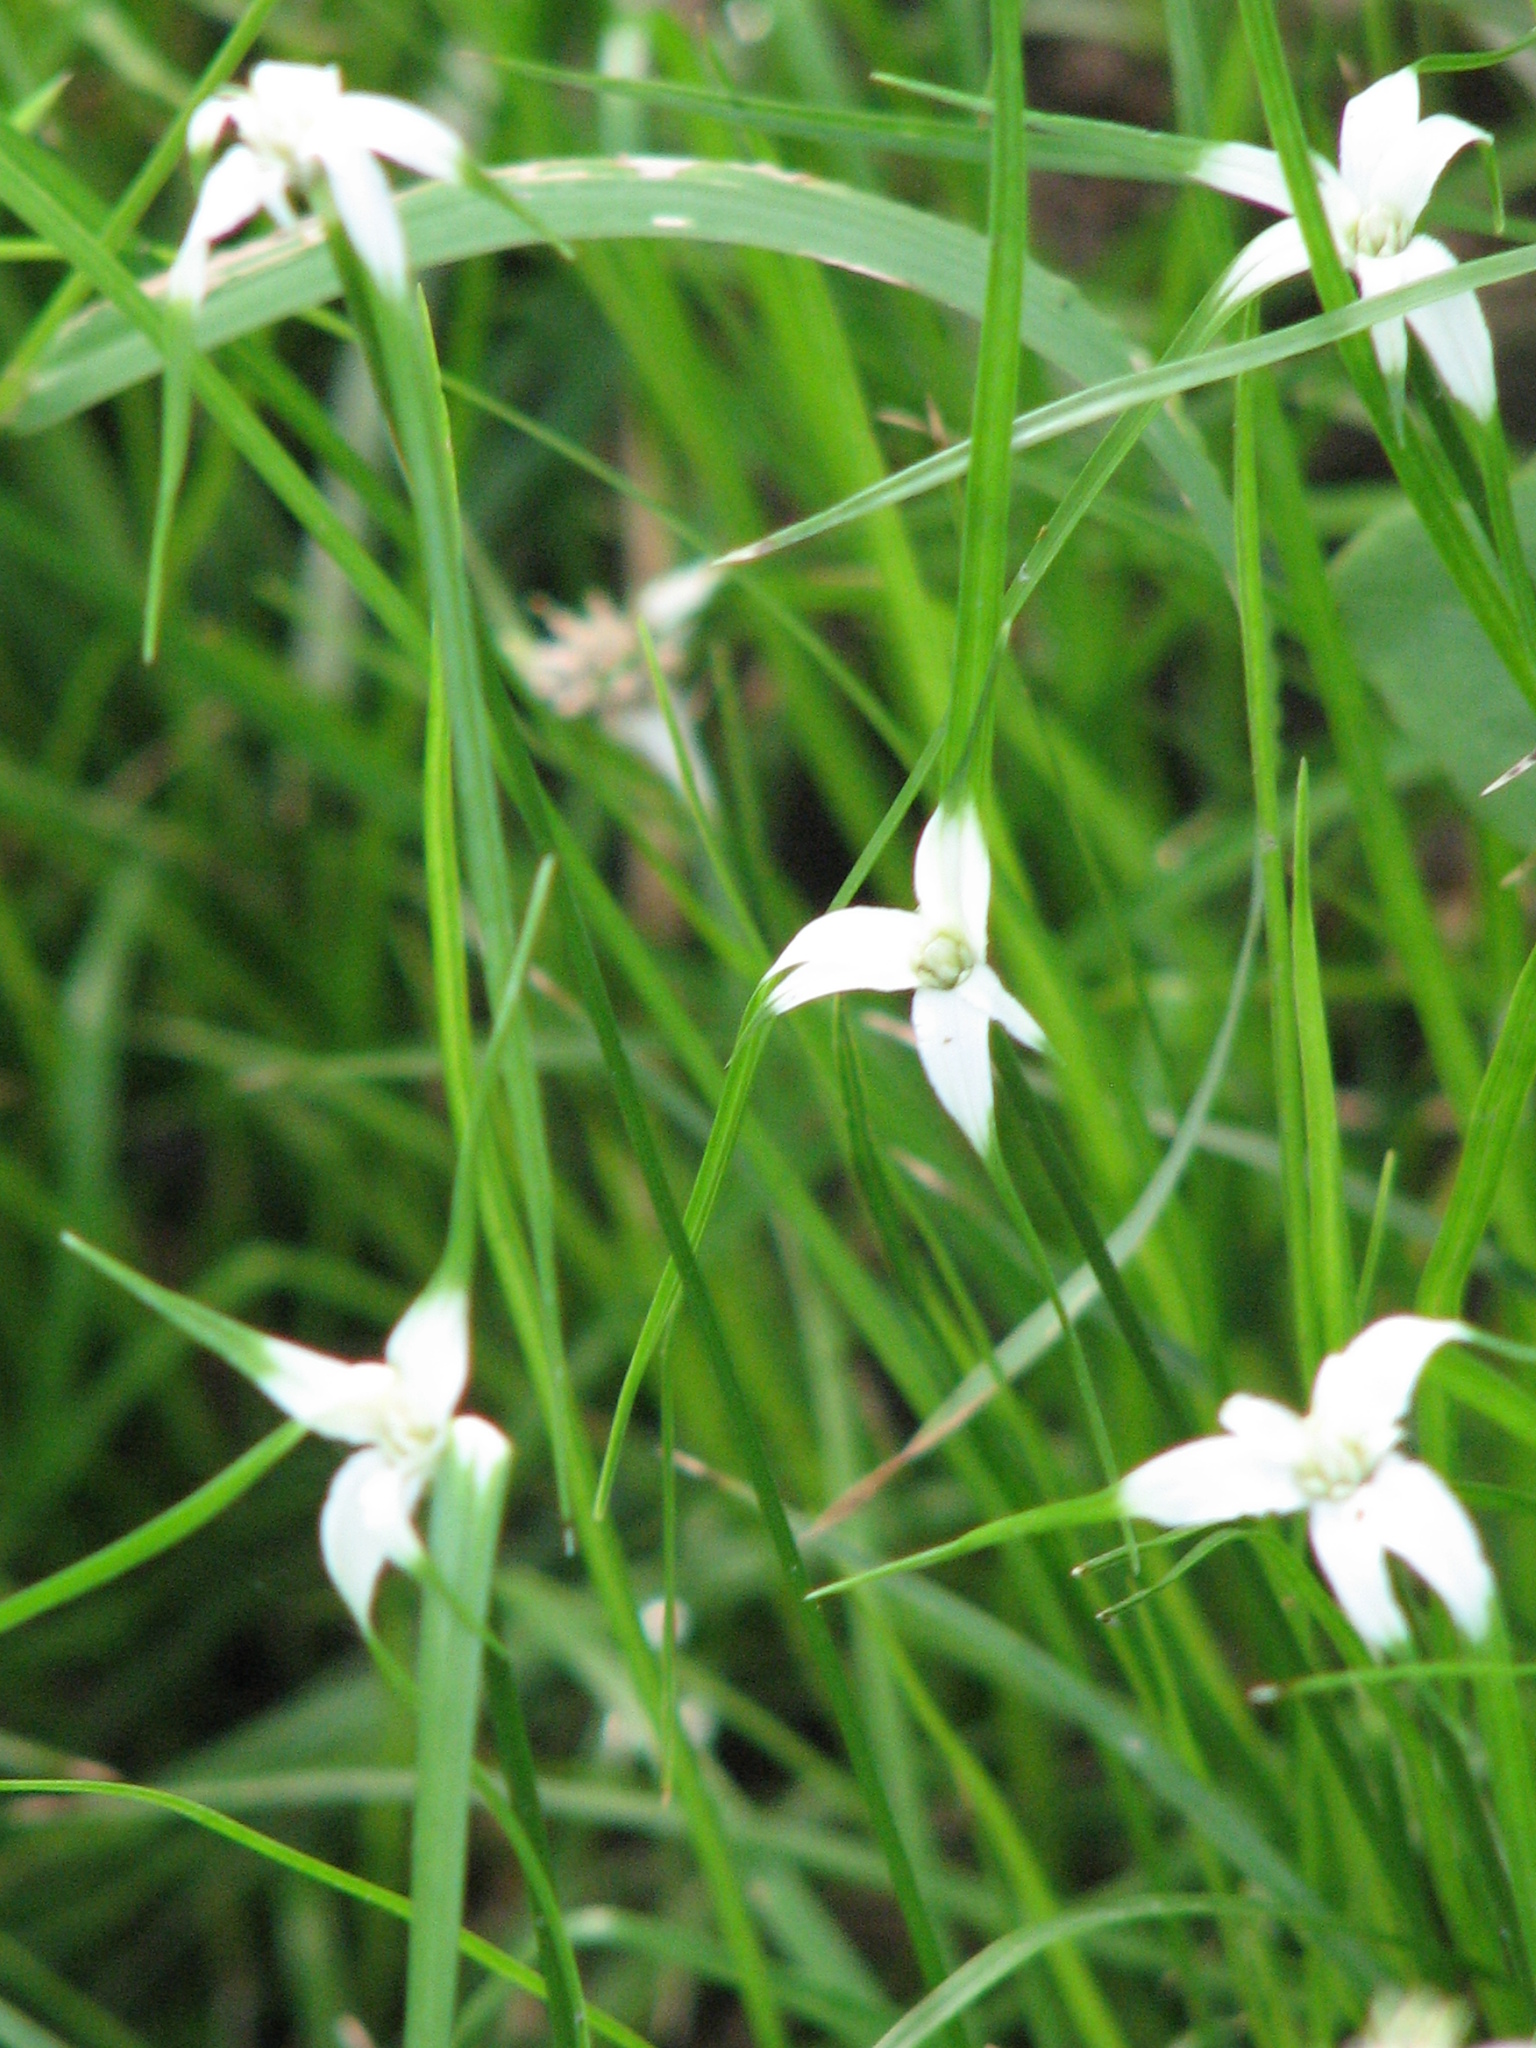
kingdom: Plantae
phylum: Tracheophyta
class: Liliopsida
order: Poales
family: Cyperaceae
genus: Rhynchospora
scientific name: Rhynchospora colorata
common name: Star sedge
